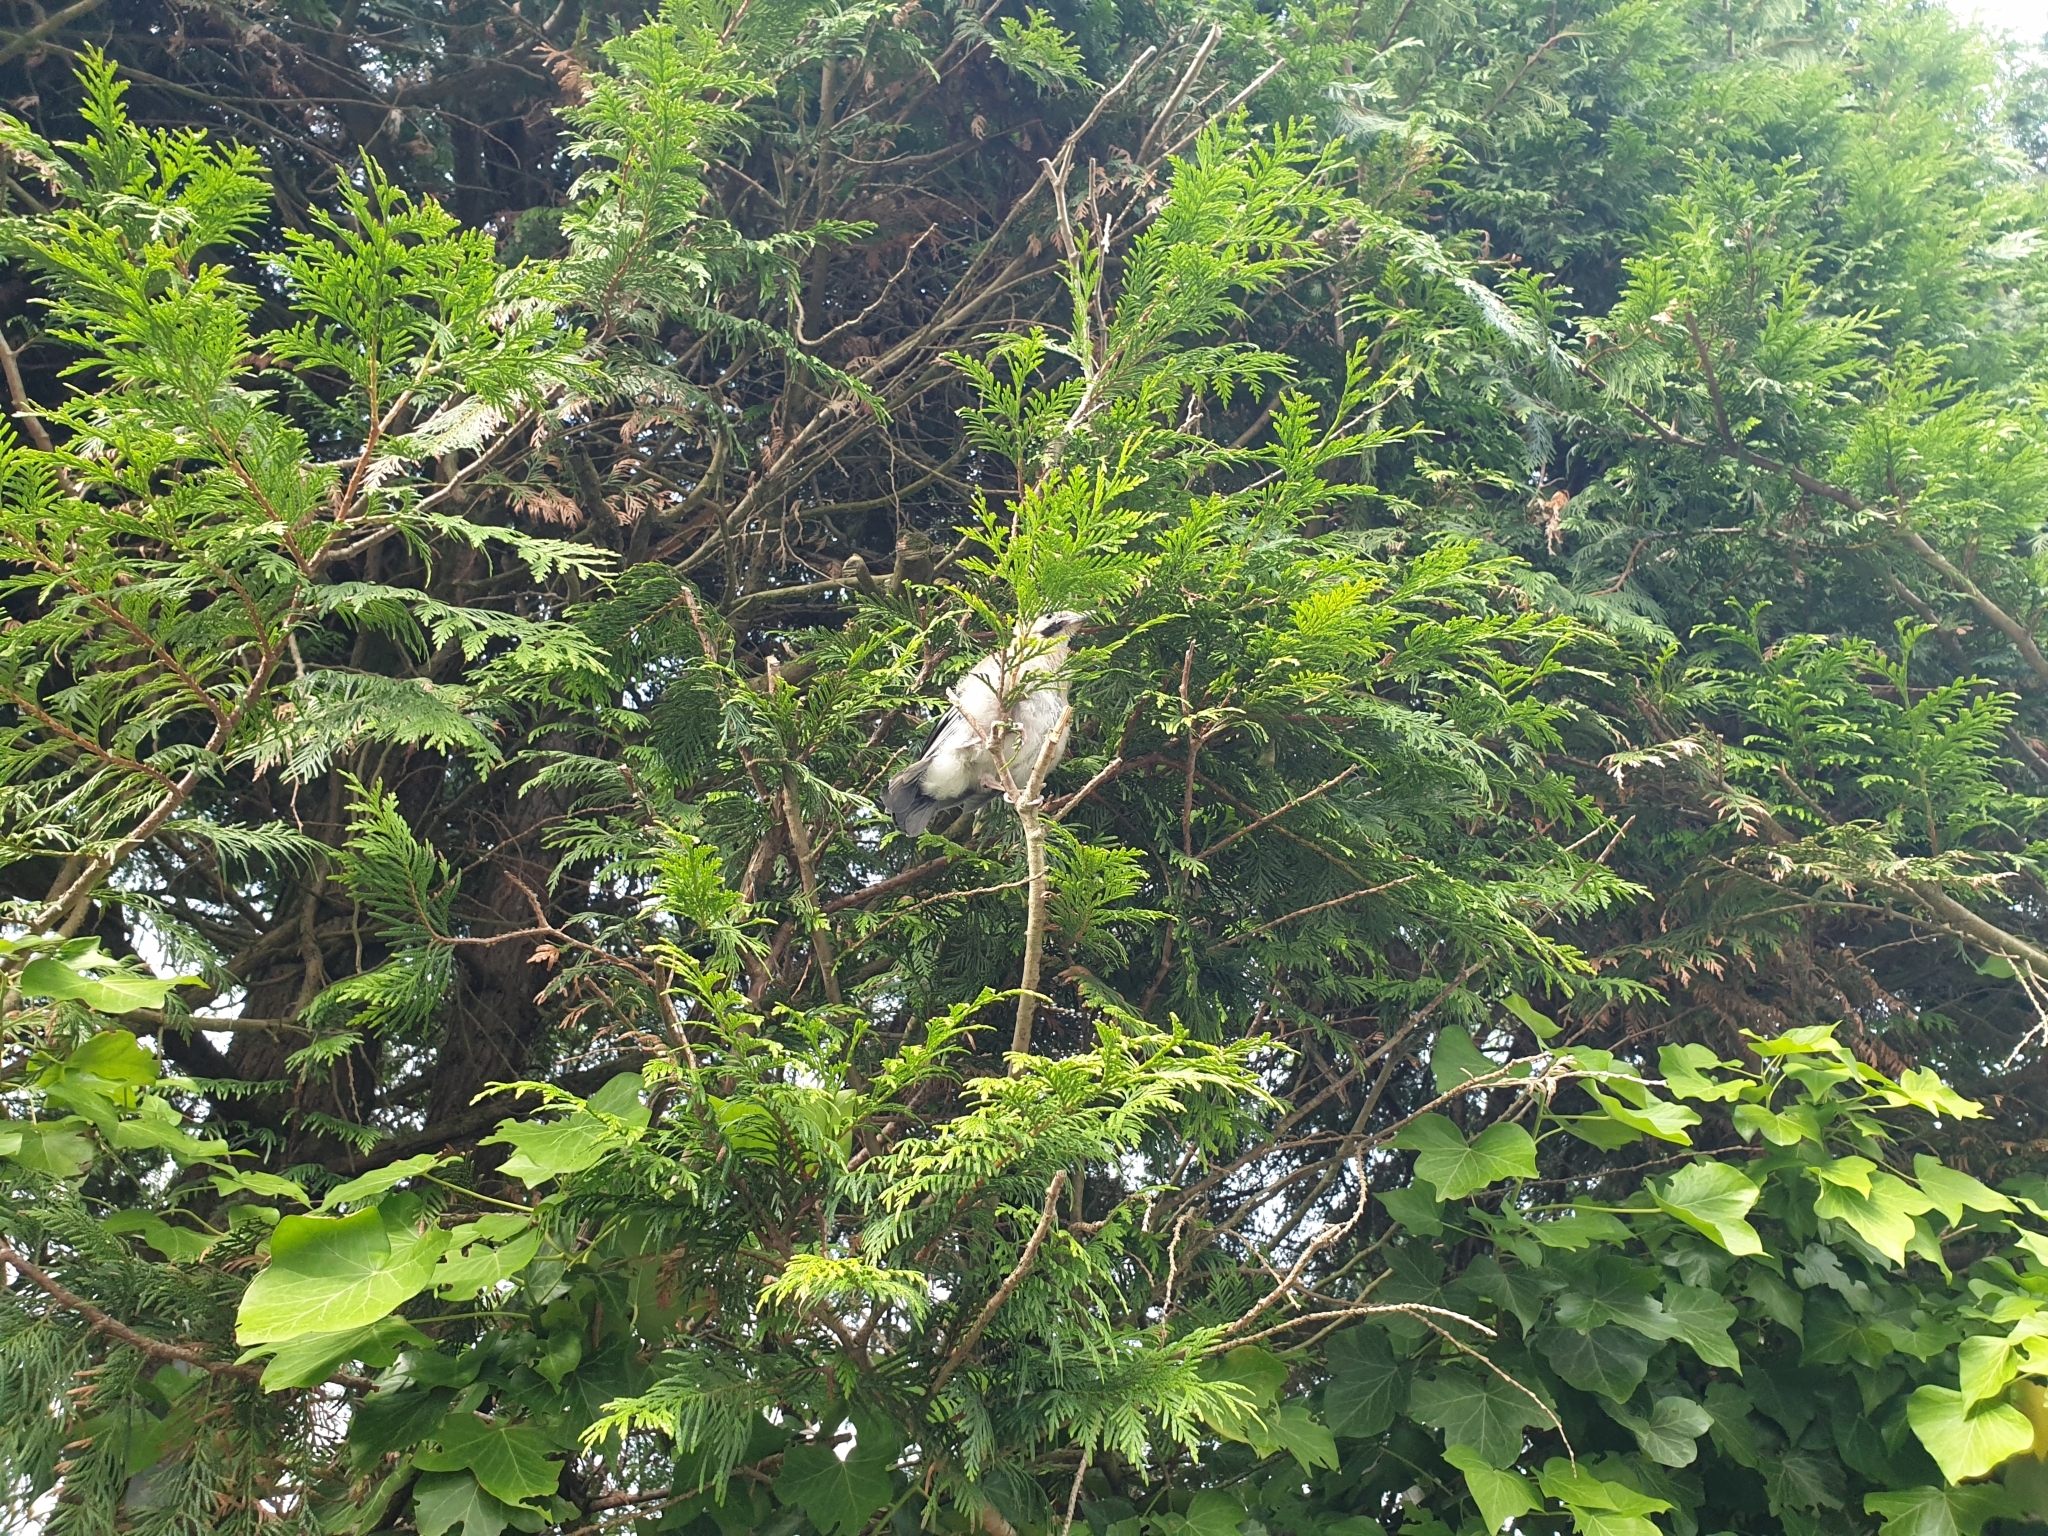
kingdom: Animalia
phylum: Chordata
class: Aves
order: Passeriformes
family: Corvidae
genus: Garrulus
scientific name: Garrulus glandarius
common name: Eurasian jay
